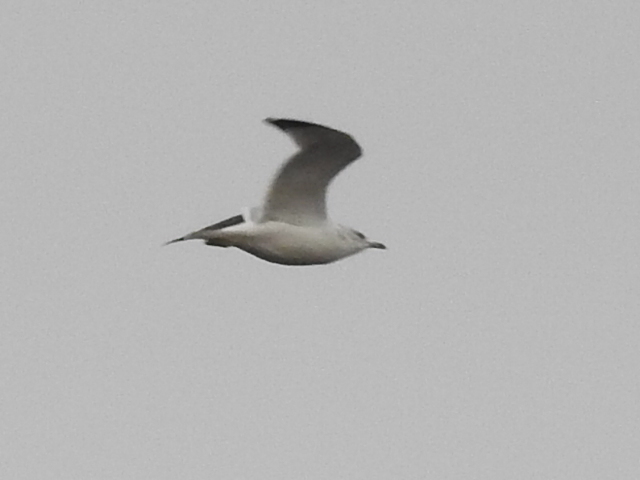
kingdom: Animalia
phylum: Chordata
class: Aves
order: Charadriiformes
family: Laridae
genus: Larus
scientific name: Larus delawarensis
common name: Ring-billed gull
